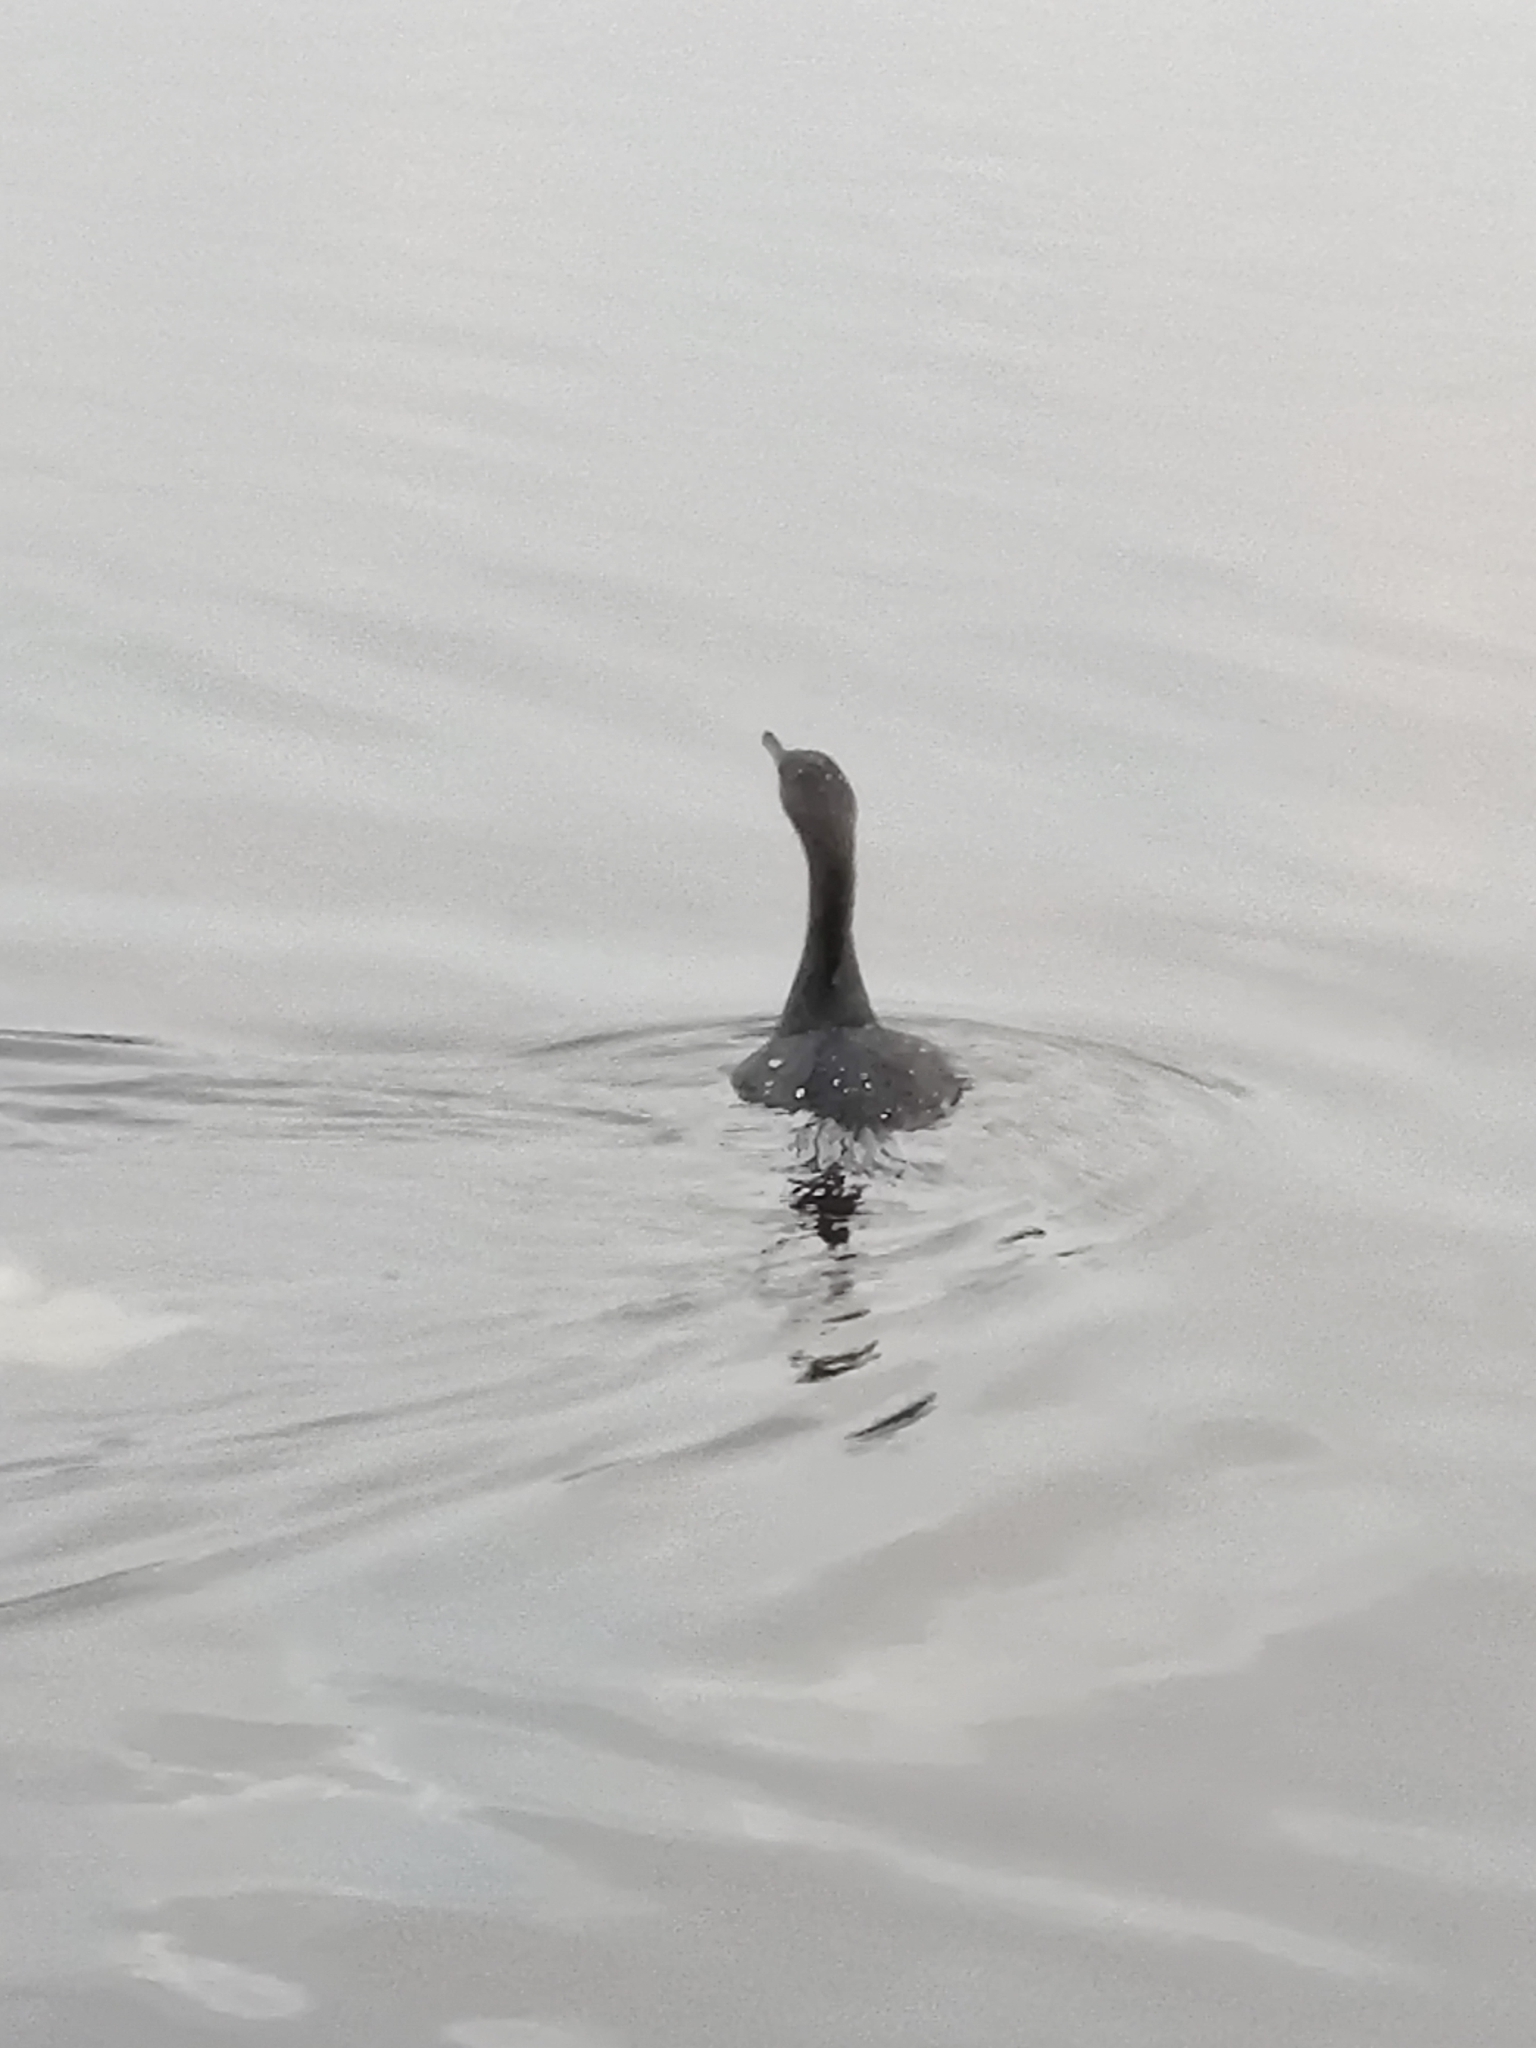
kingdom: Animalia
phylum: Chordata
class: Aves
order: Suliformes
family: Phalacrocoracidae
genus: Phalacrocorax
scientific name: Phalacrocorax auritus
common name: Double-crested cormorant
